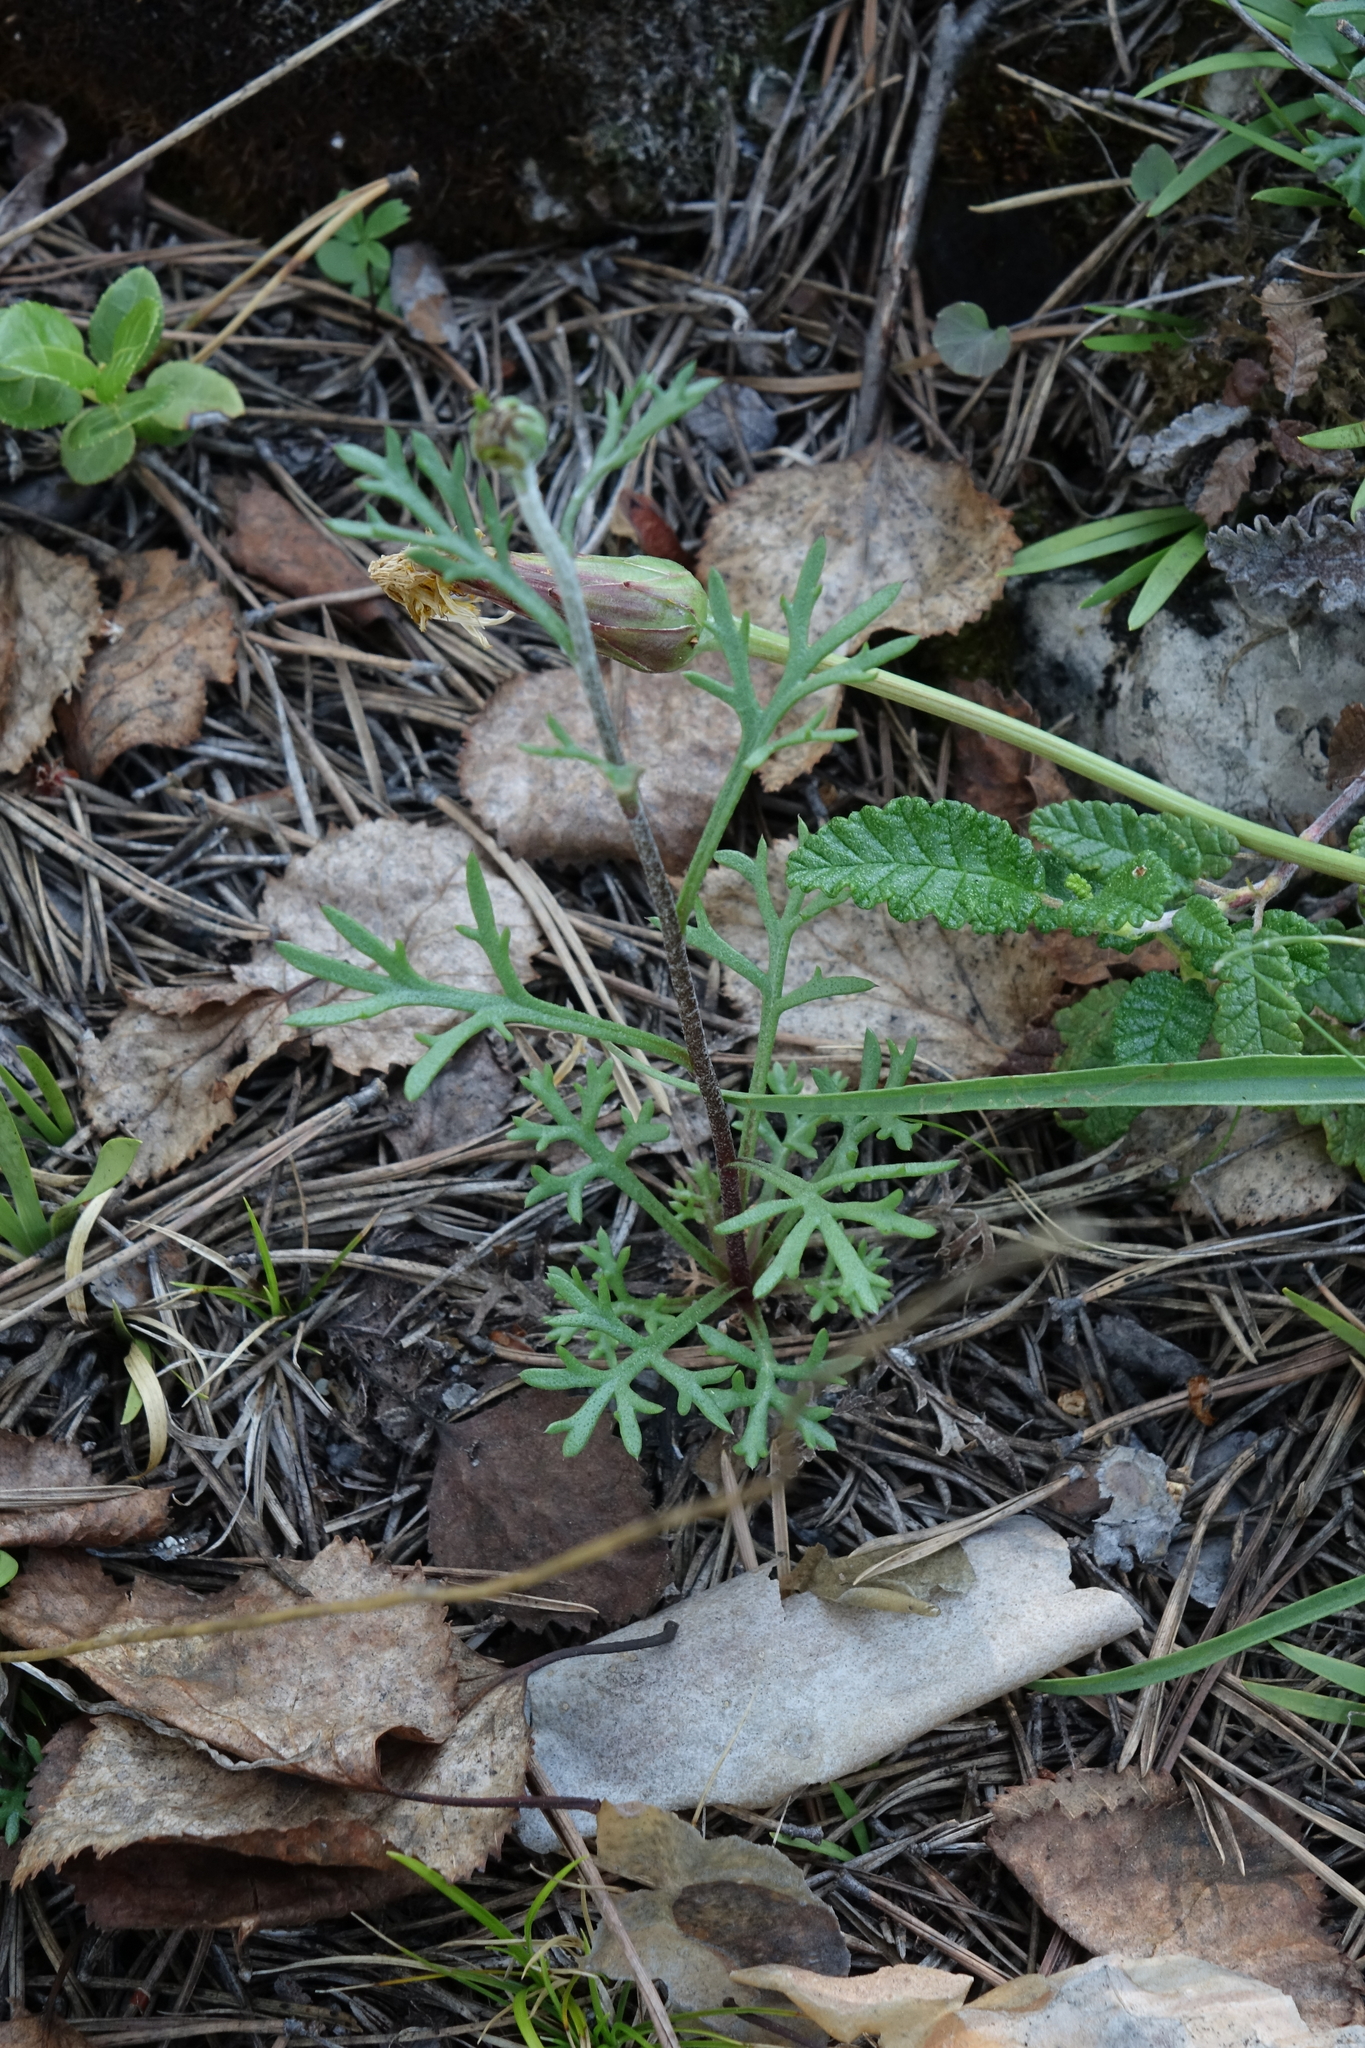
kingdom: Plantae
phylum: Tracheophyta
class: Magnoliopsida
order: Asterales
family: Asteraceae
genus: Chrysanthemum
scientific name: Chrysanthemum zawadzkii
